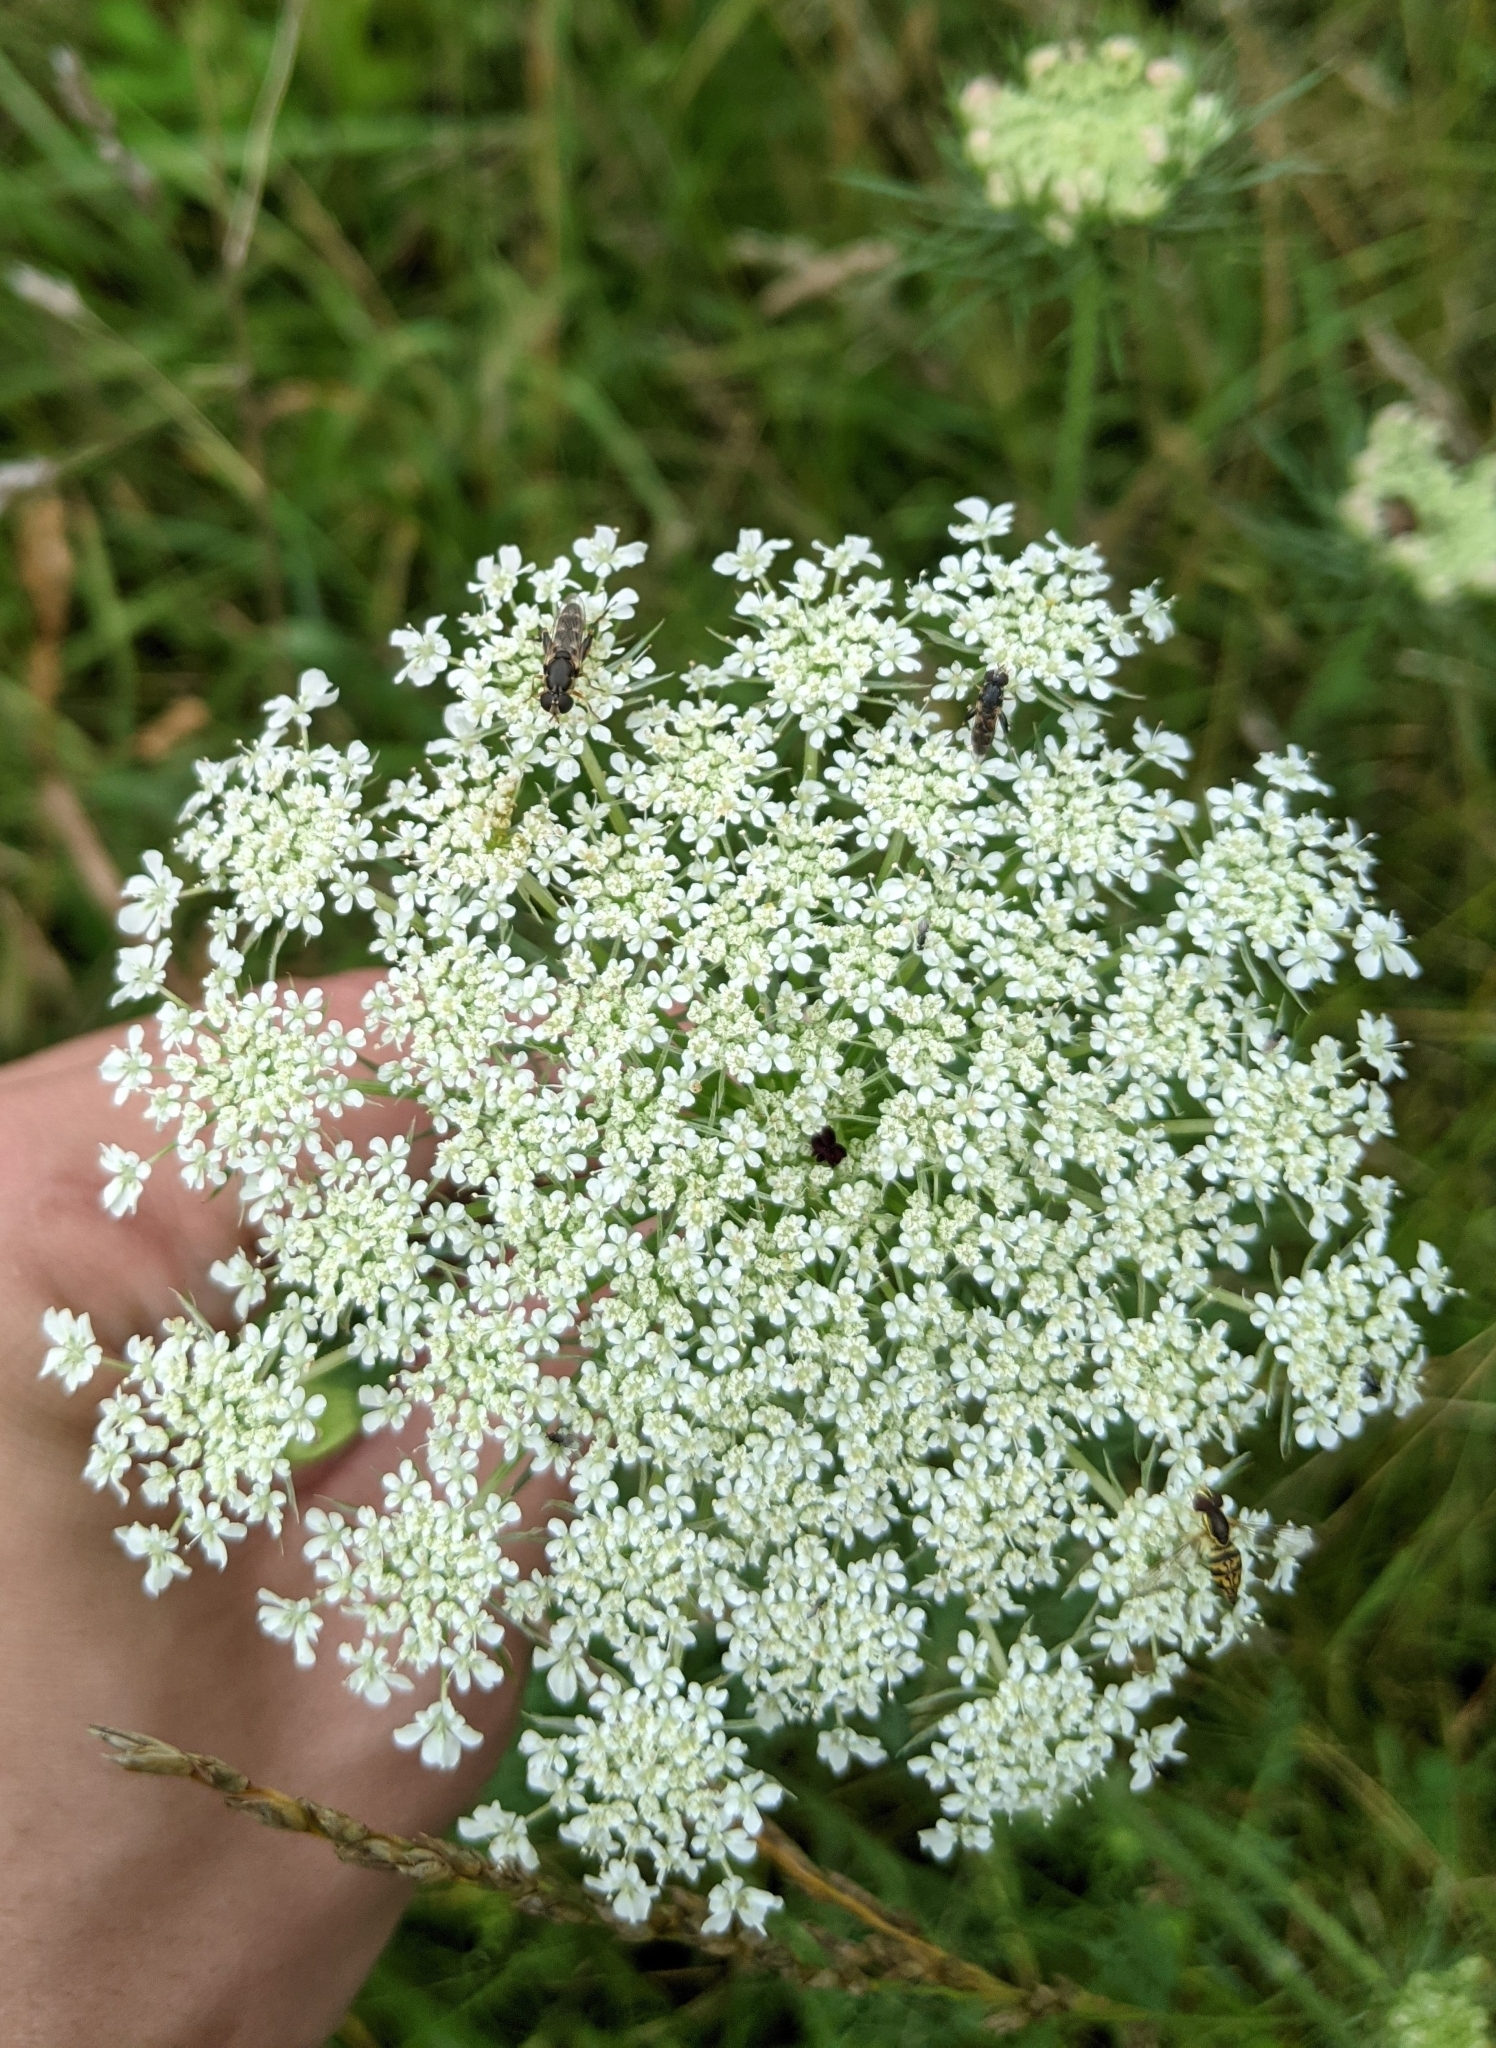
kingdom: Plantae
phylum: Tracheophyta
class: Magnoliopsida
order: Apiales
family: Apiaceae
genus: Daucus
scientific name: Daucus carota
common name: Wild carrot
